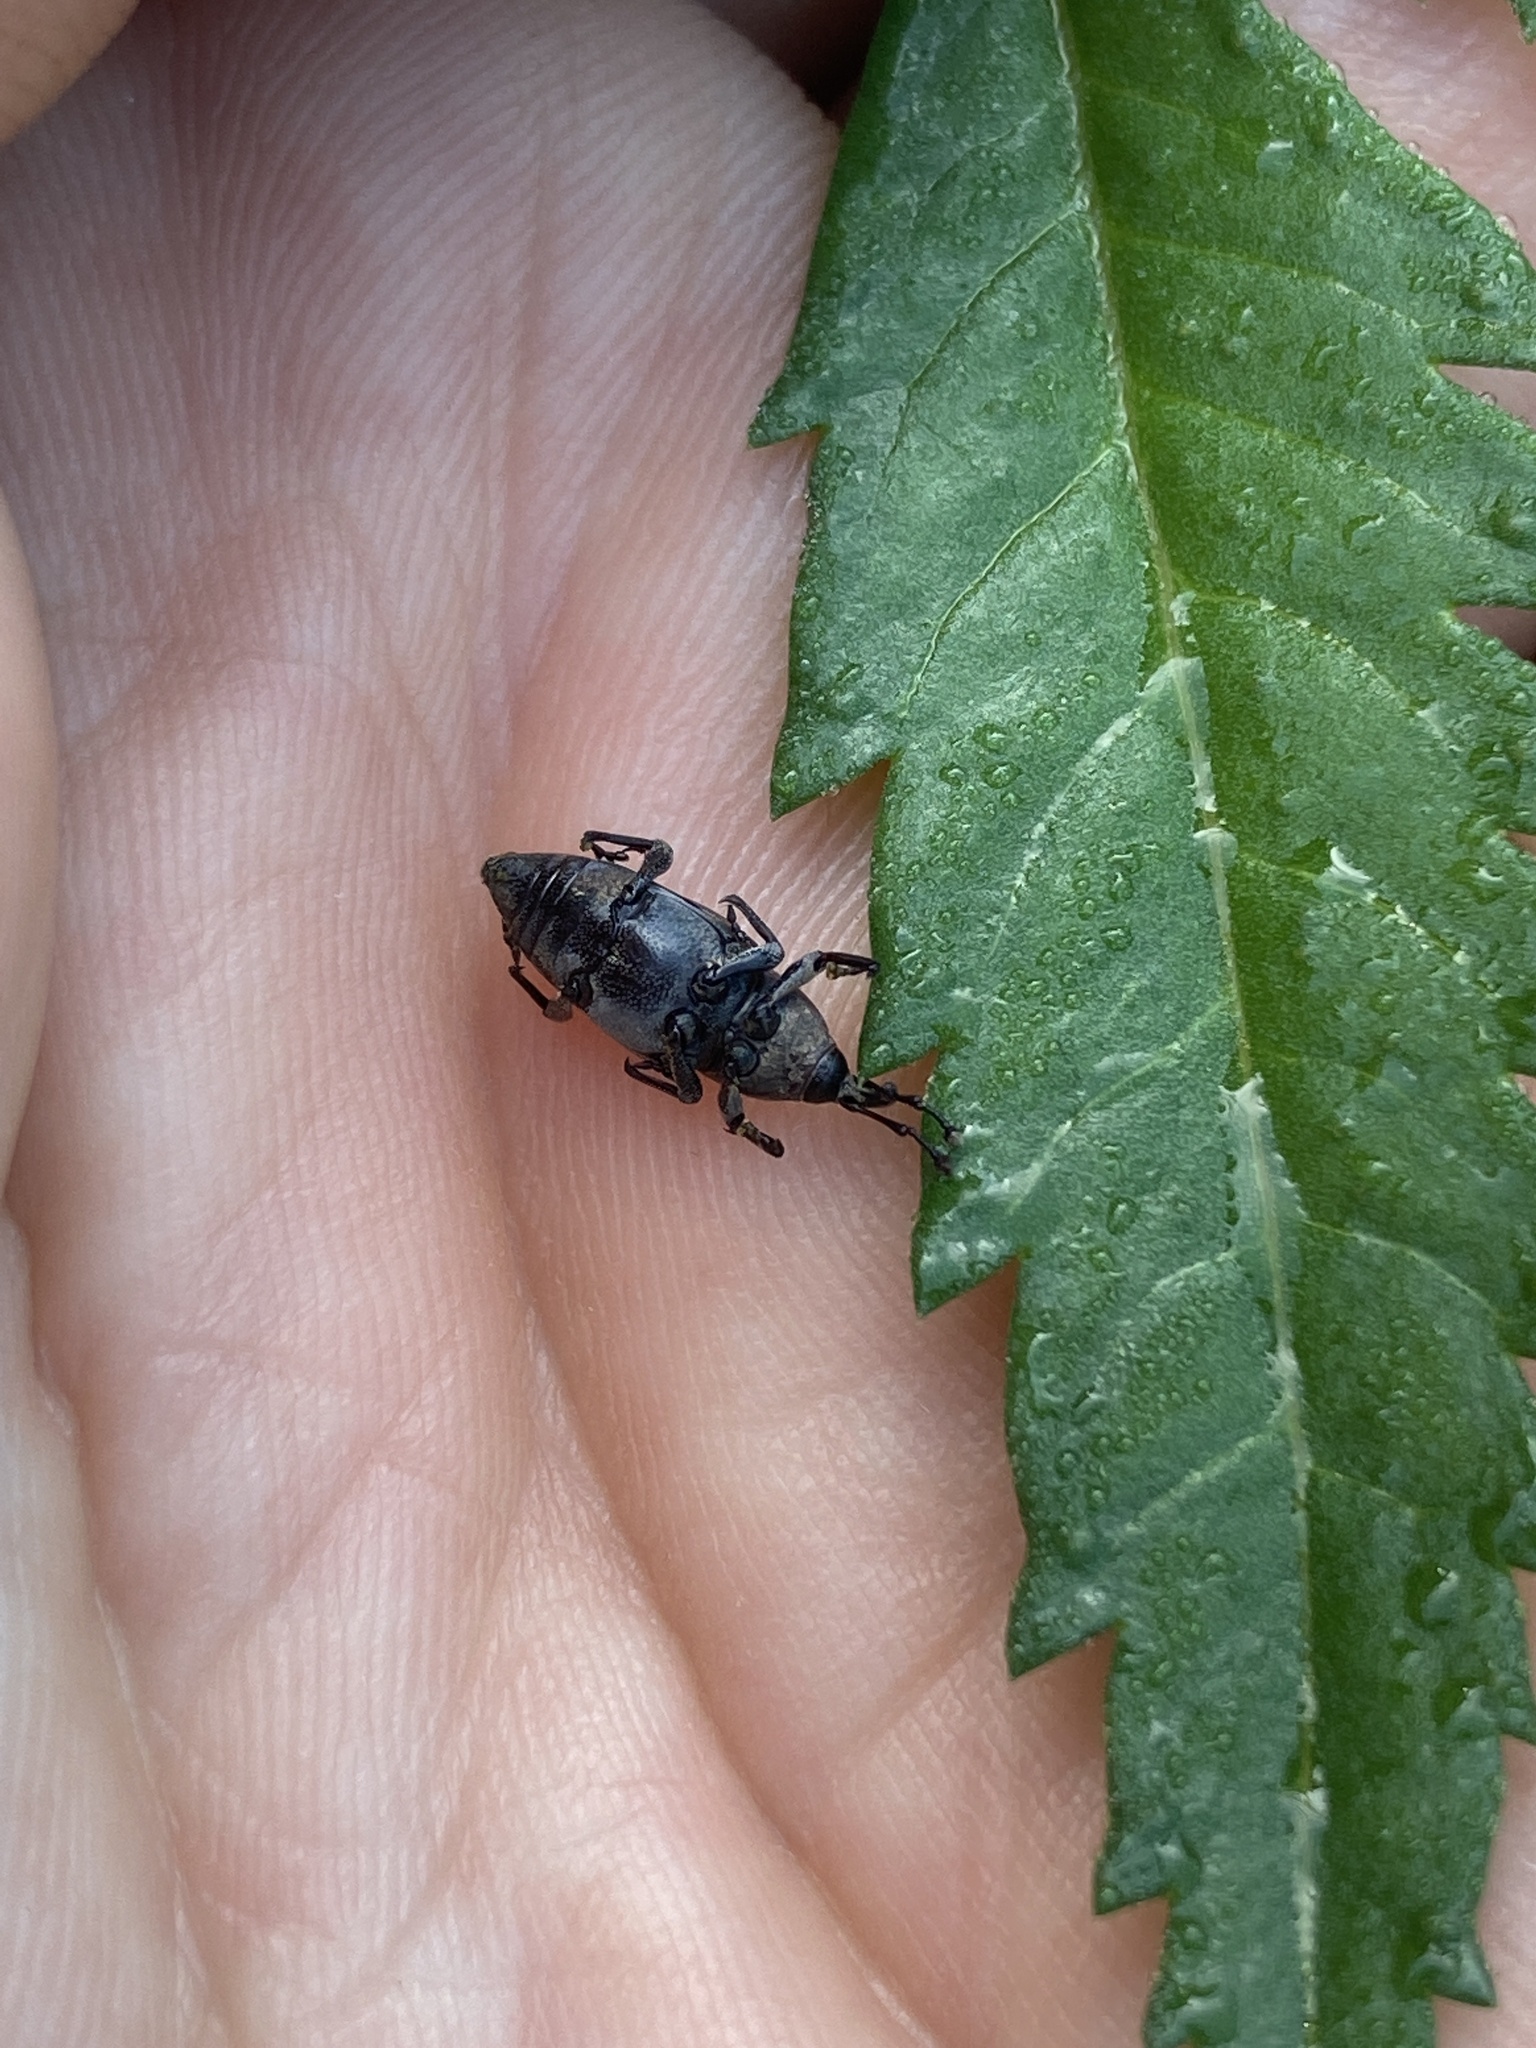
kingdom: Animalia
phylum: Arthropoda
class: Insecta
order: Coleoptera
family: Dryophthoridae
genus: Rhodobaenus
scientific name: Rhodobaenus quinquepunctatus
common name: Cocklebur weevil
